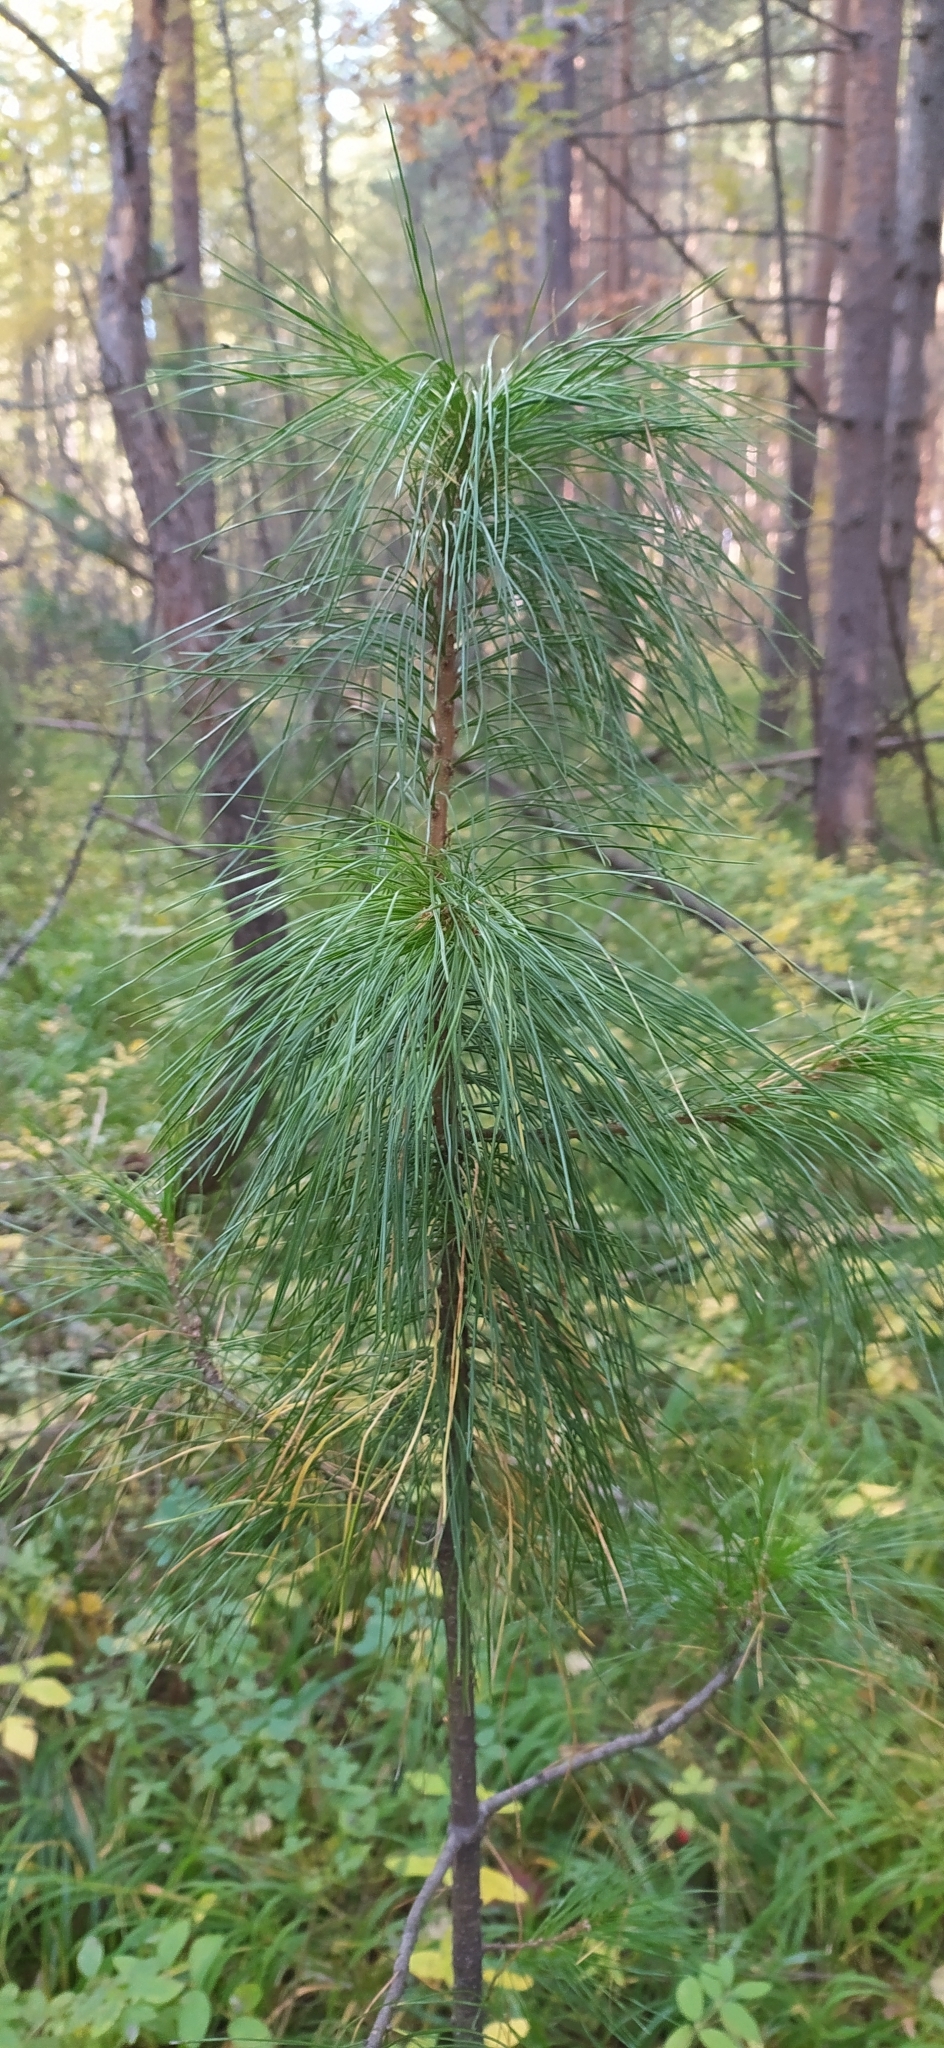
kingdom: Plantae
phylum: Tracheophyta
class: Pinopsida
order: Pinales
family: Pinaceae
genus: Pinus
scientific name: Pinus sibirica
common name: Siberian pine
